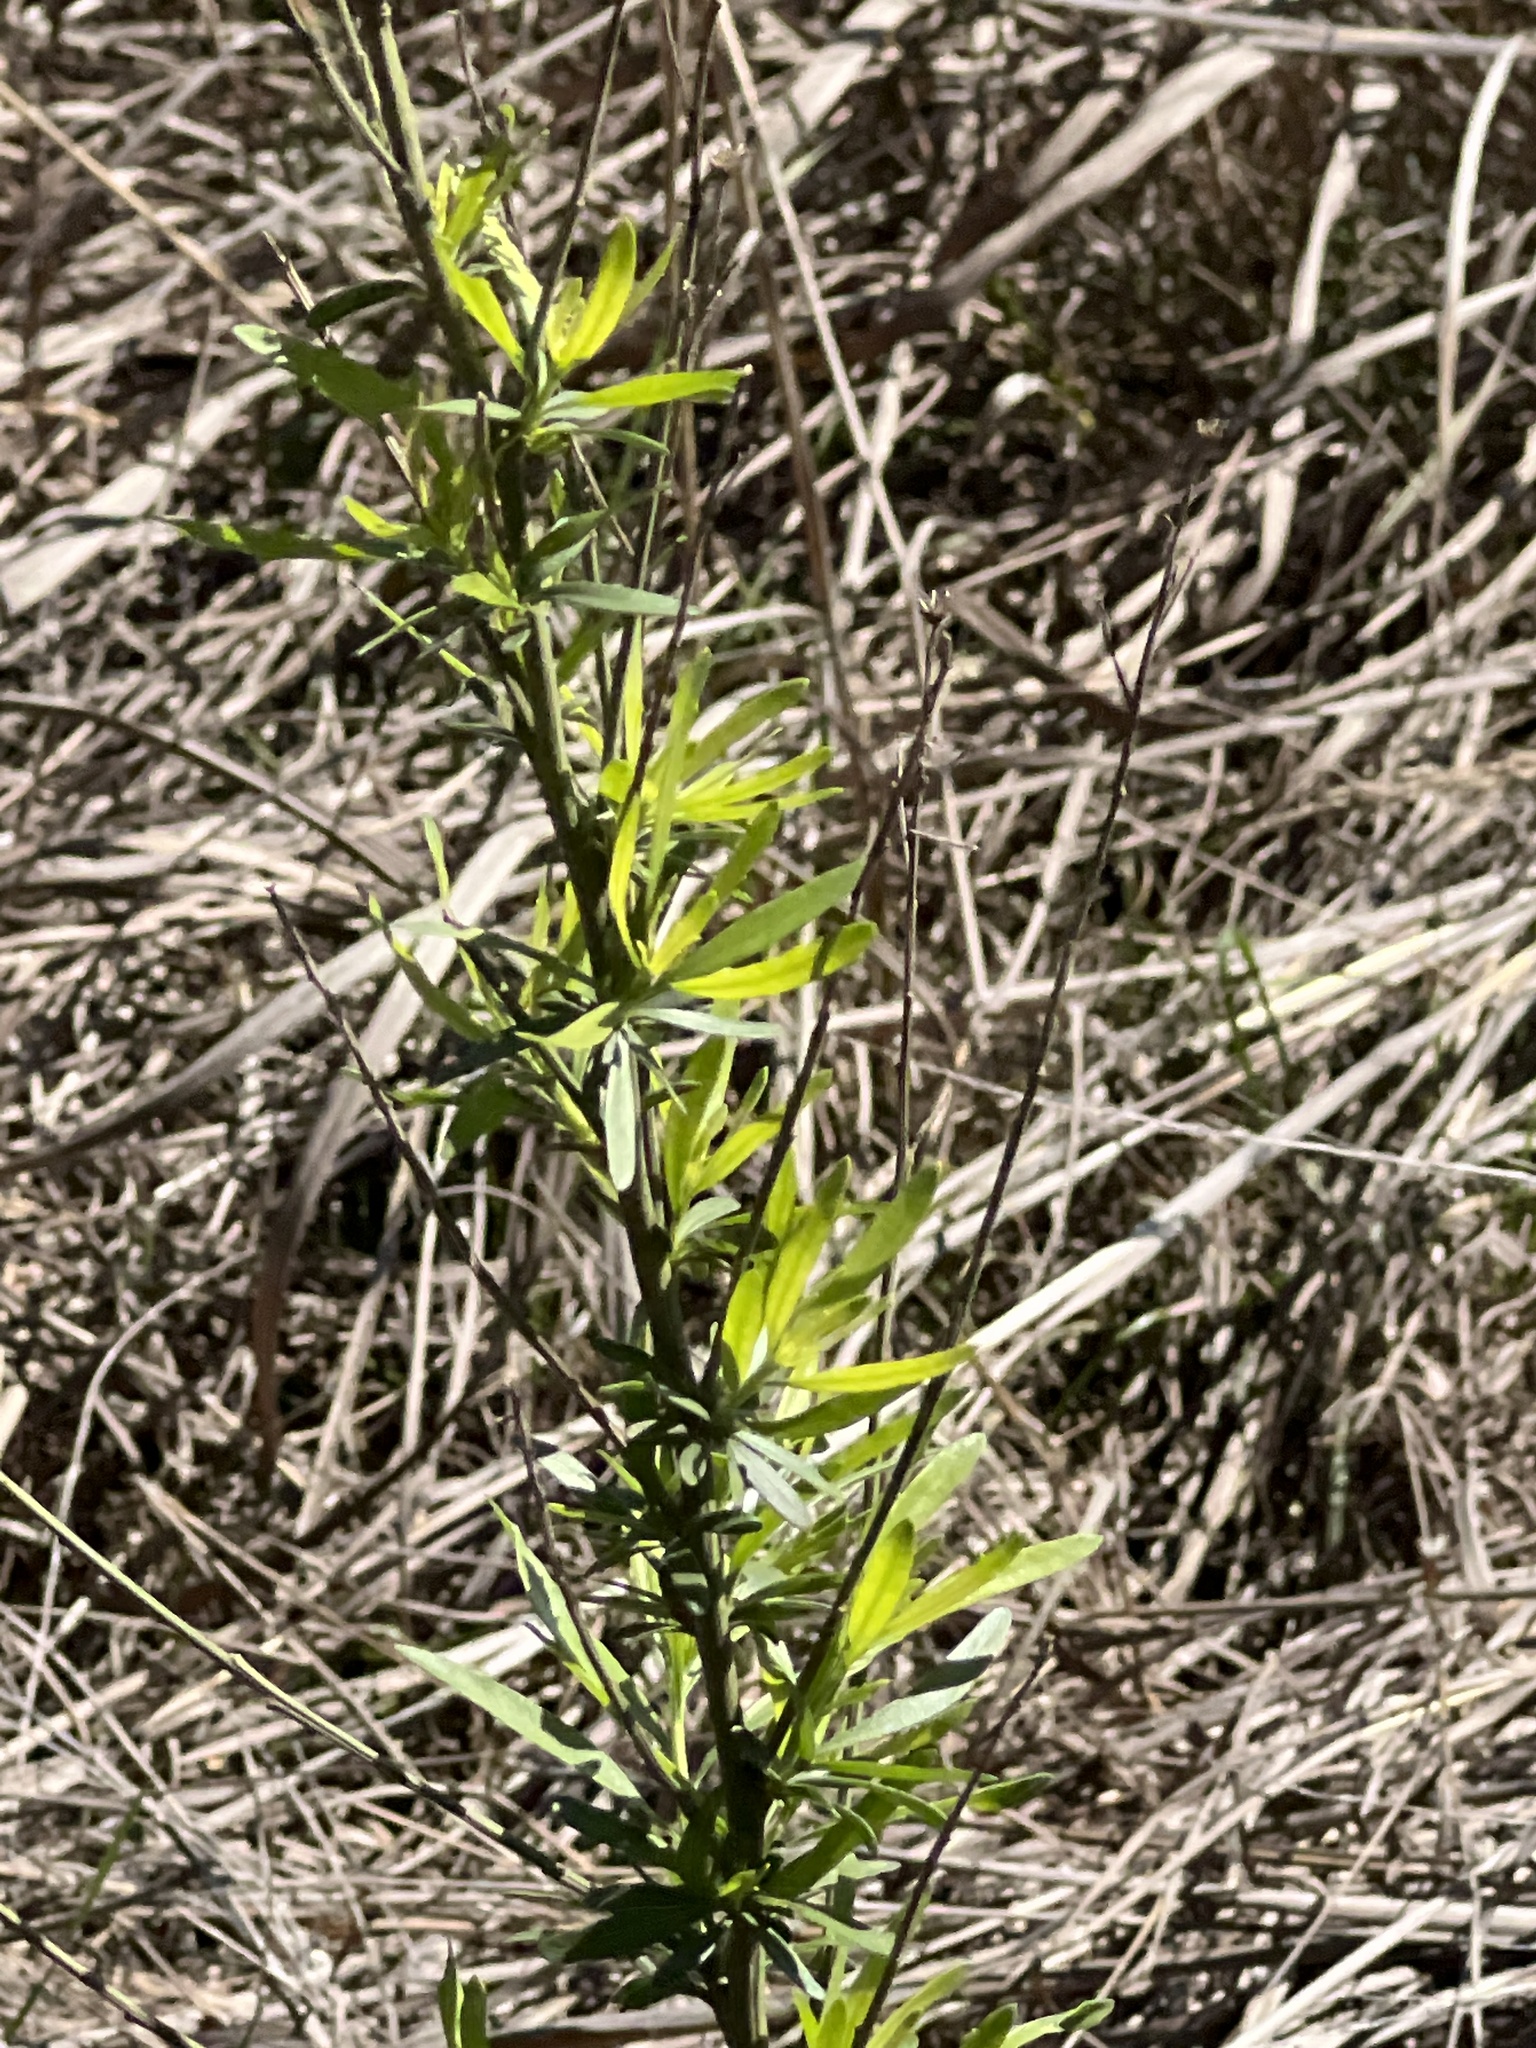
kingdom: Plantae
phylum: Tracheophyta
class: Magnoliopsida
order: Asterales
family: Asteraceae
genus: Baccharis
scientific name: Baccharis neglecta
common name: Roosevelt-weed
